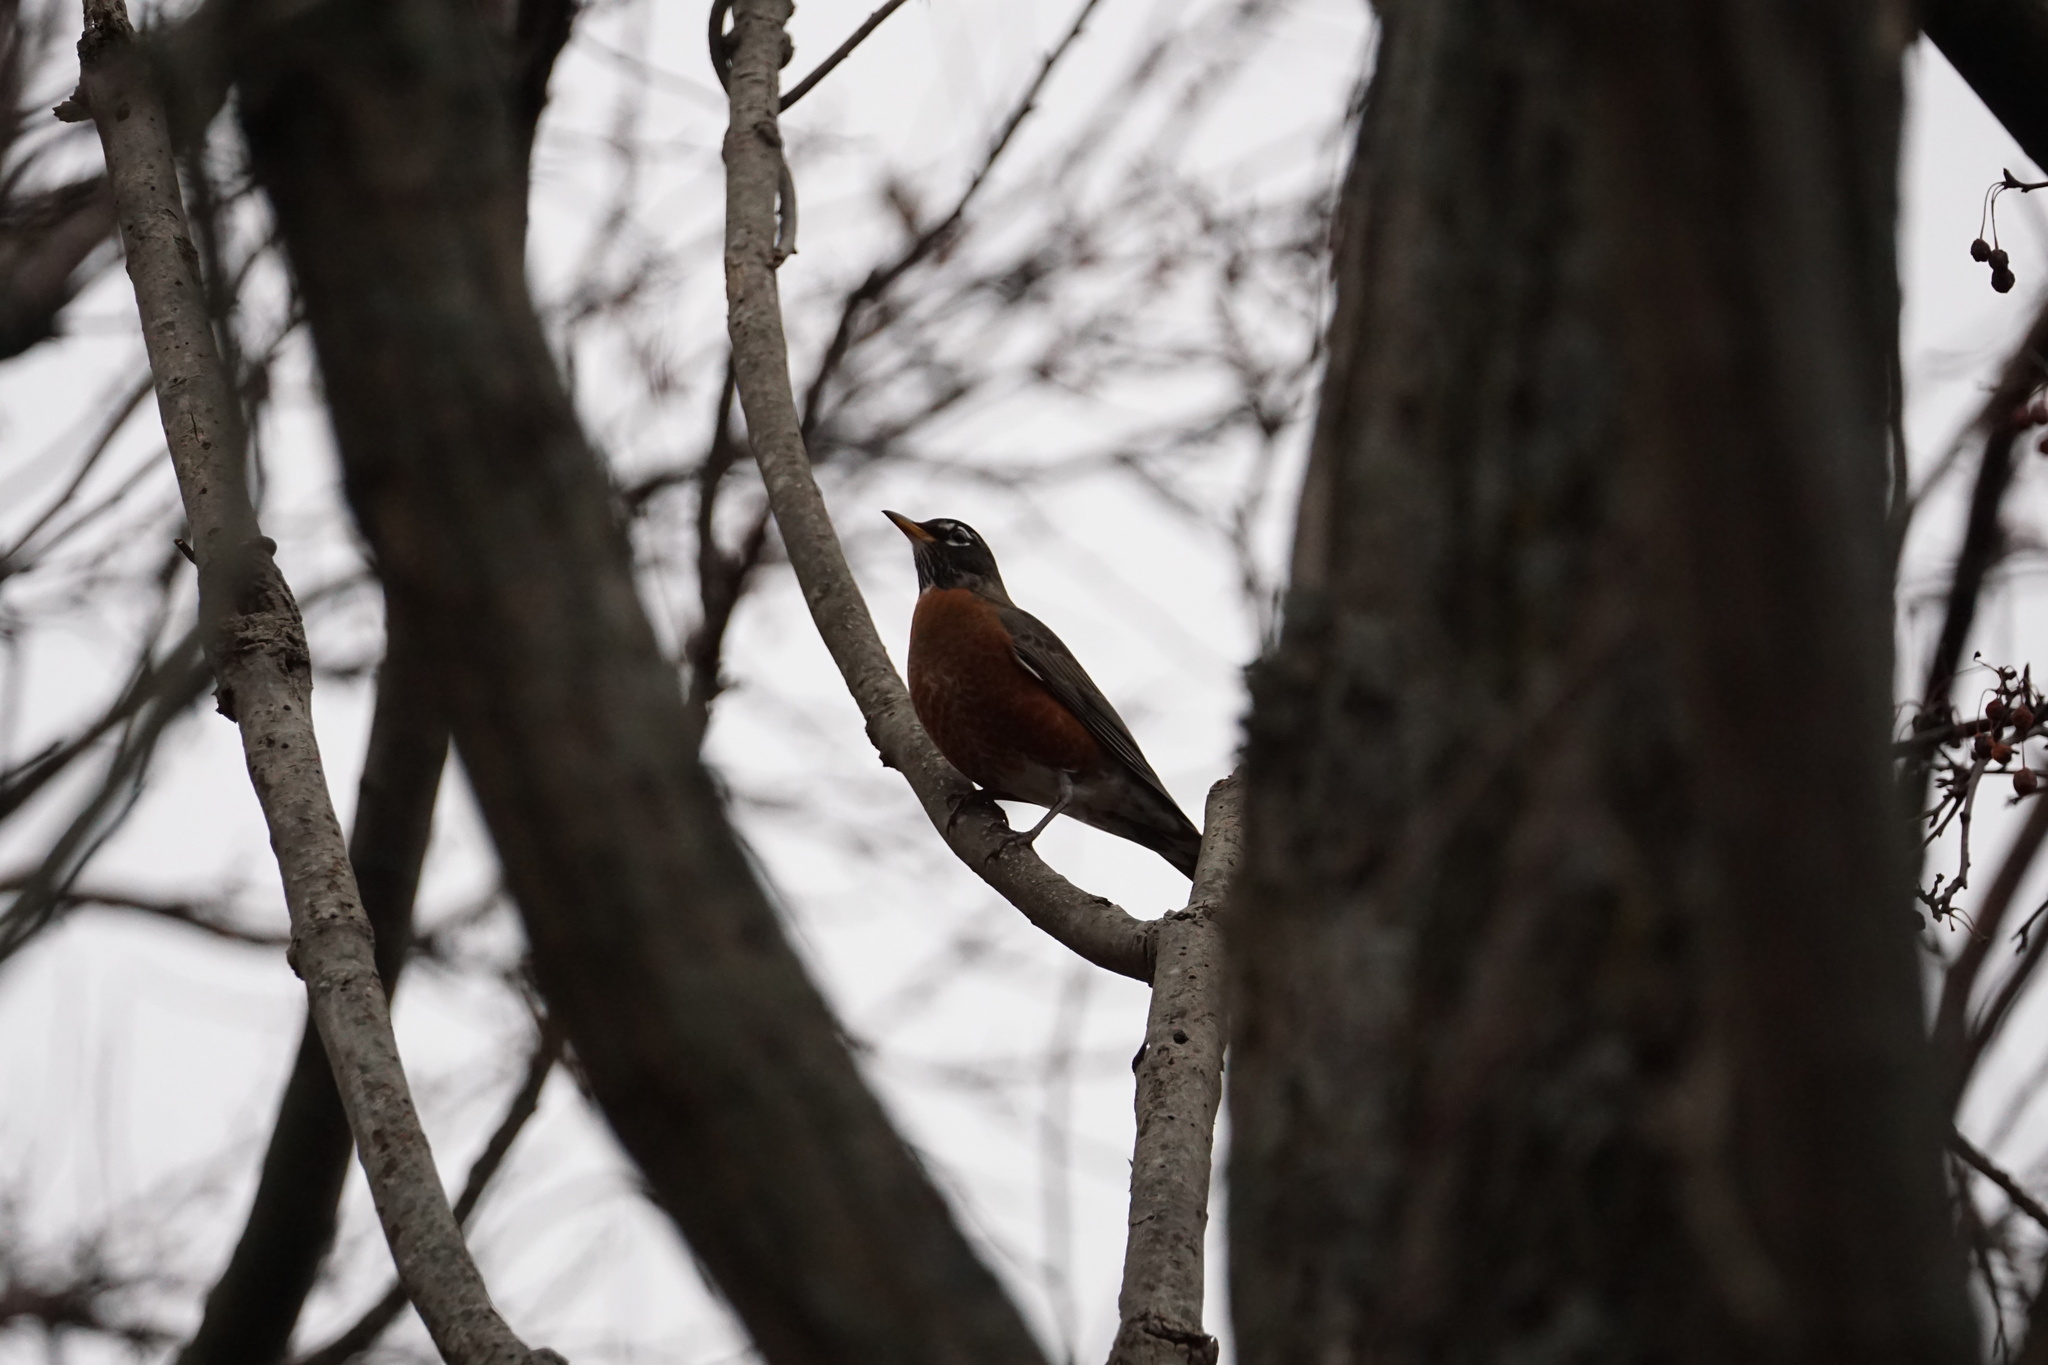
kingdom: Animalia
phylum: Chordata
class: Aves
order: Passeriformes
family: Turdidae
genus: Turdus
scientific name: Turdus migratorius
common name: American robin
